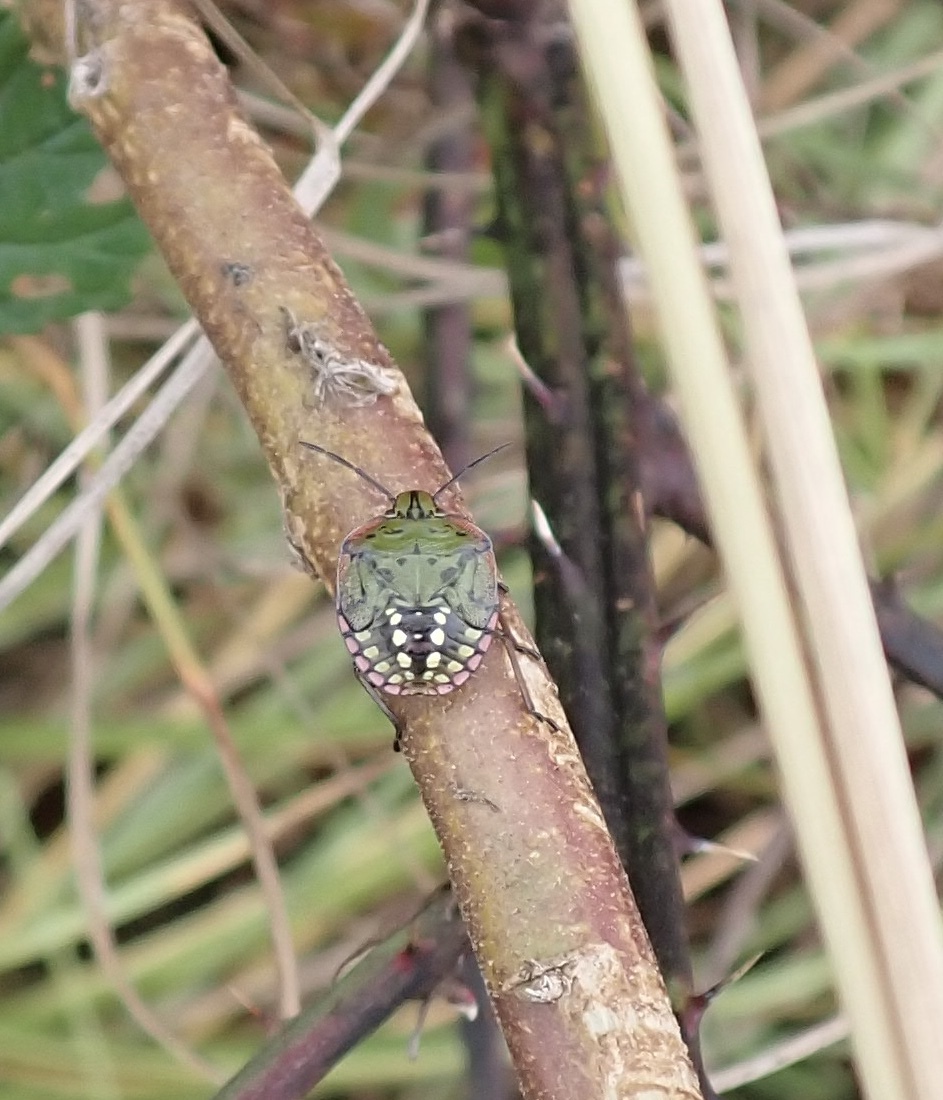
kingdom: Animalia
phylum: Arthropoda
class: Insecta
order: Hemiptera
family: Pentatomidae
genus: Nezara
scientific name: Nezara viridula
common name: Southern green stink bug
